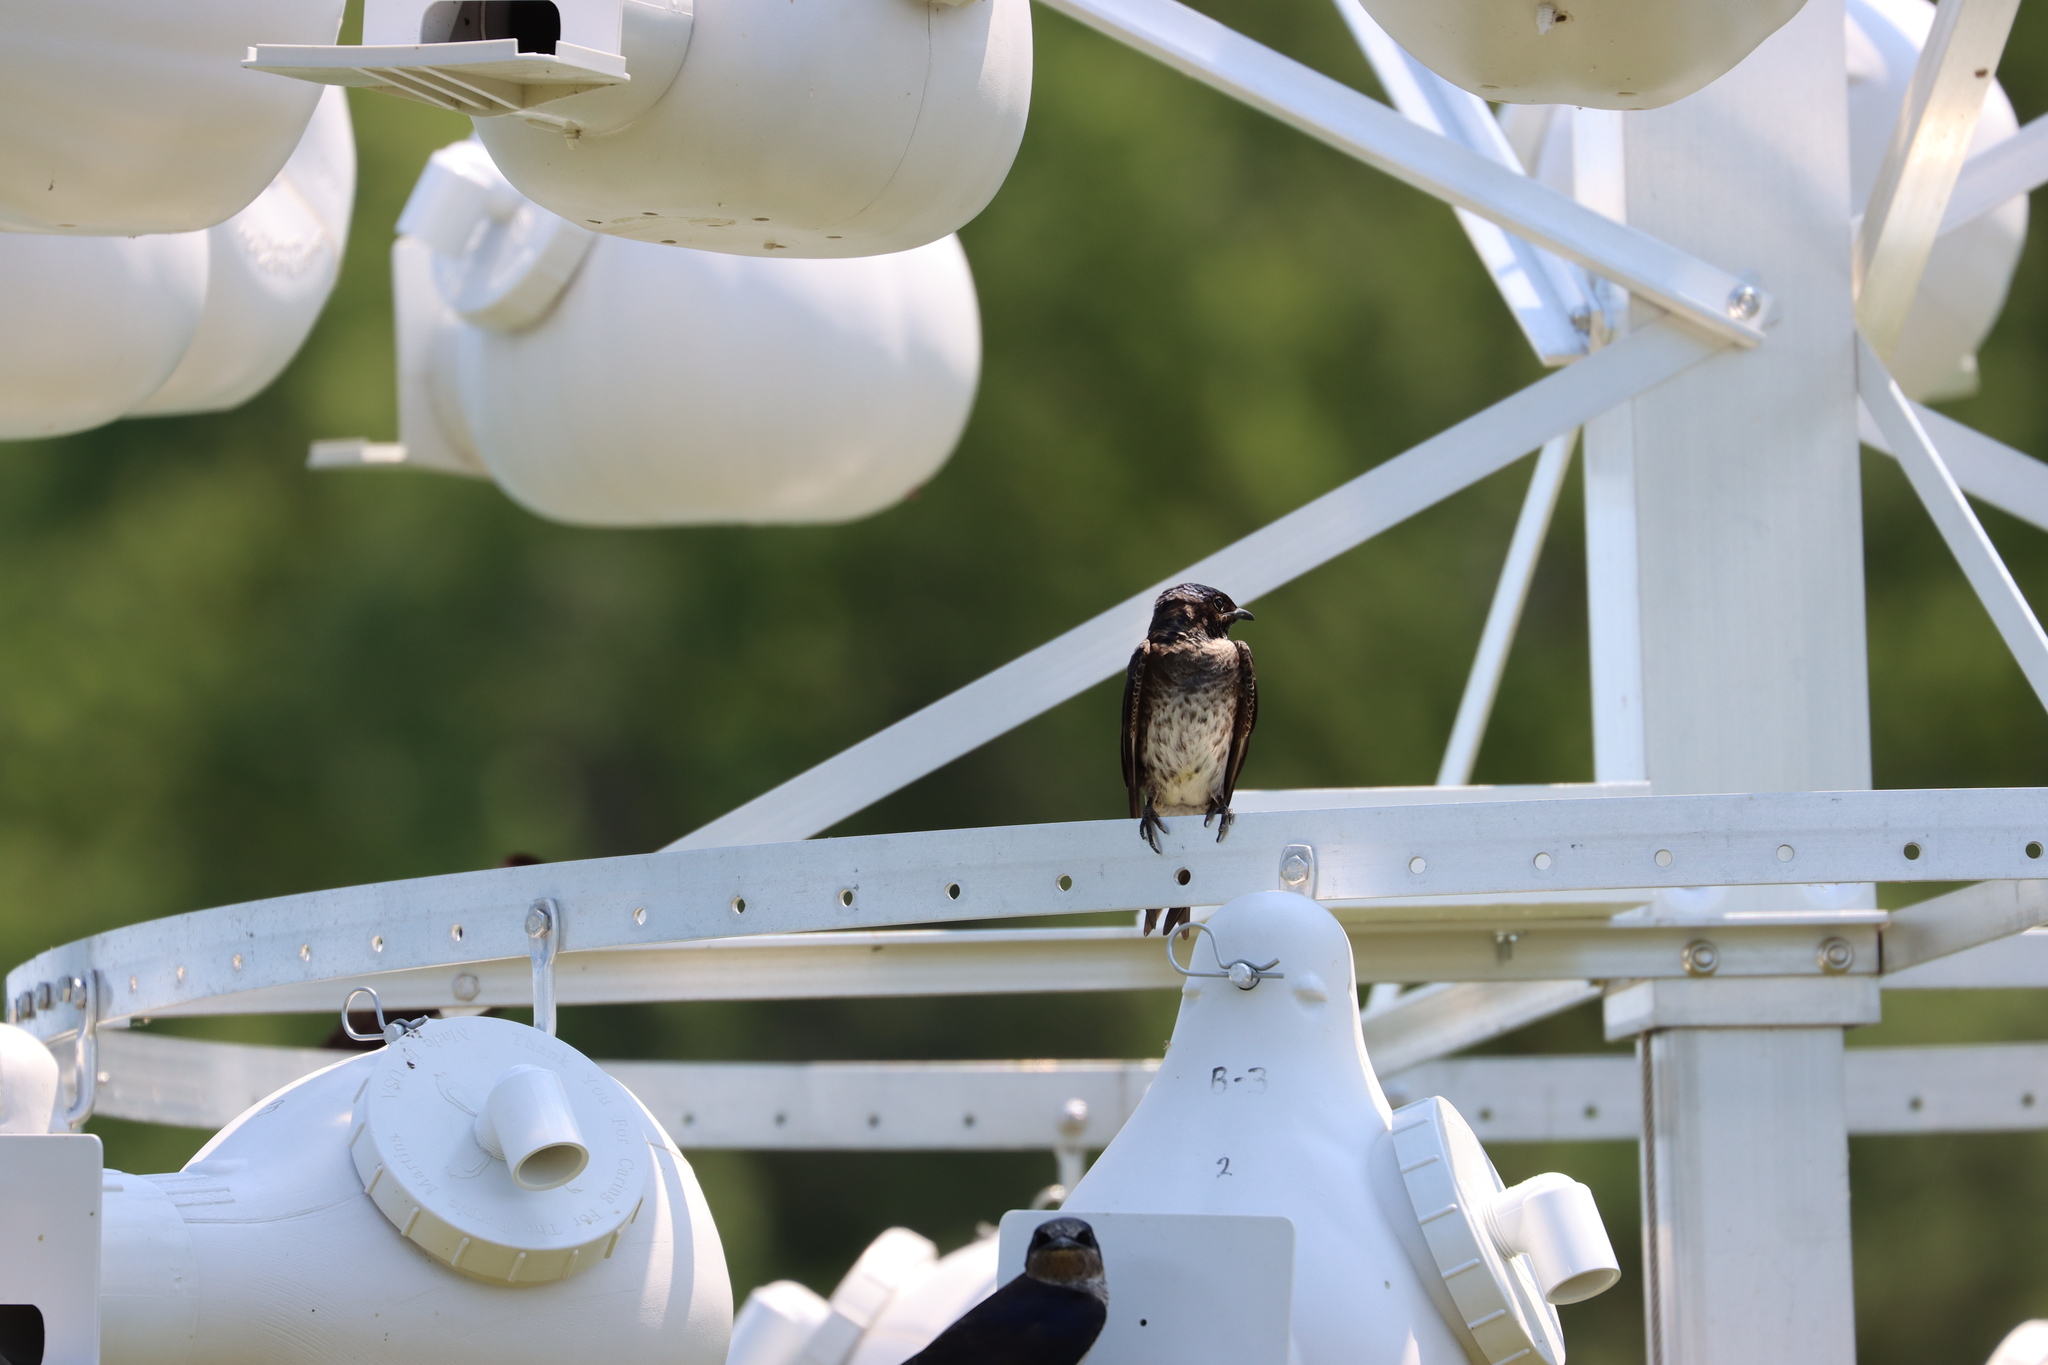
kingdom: Animalia
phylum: Chordata
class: Aves
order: Passeriformes
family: Hirundinidae
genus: Progne
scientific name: Progne subis
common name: Purple martin
